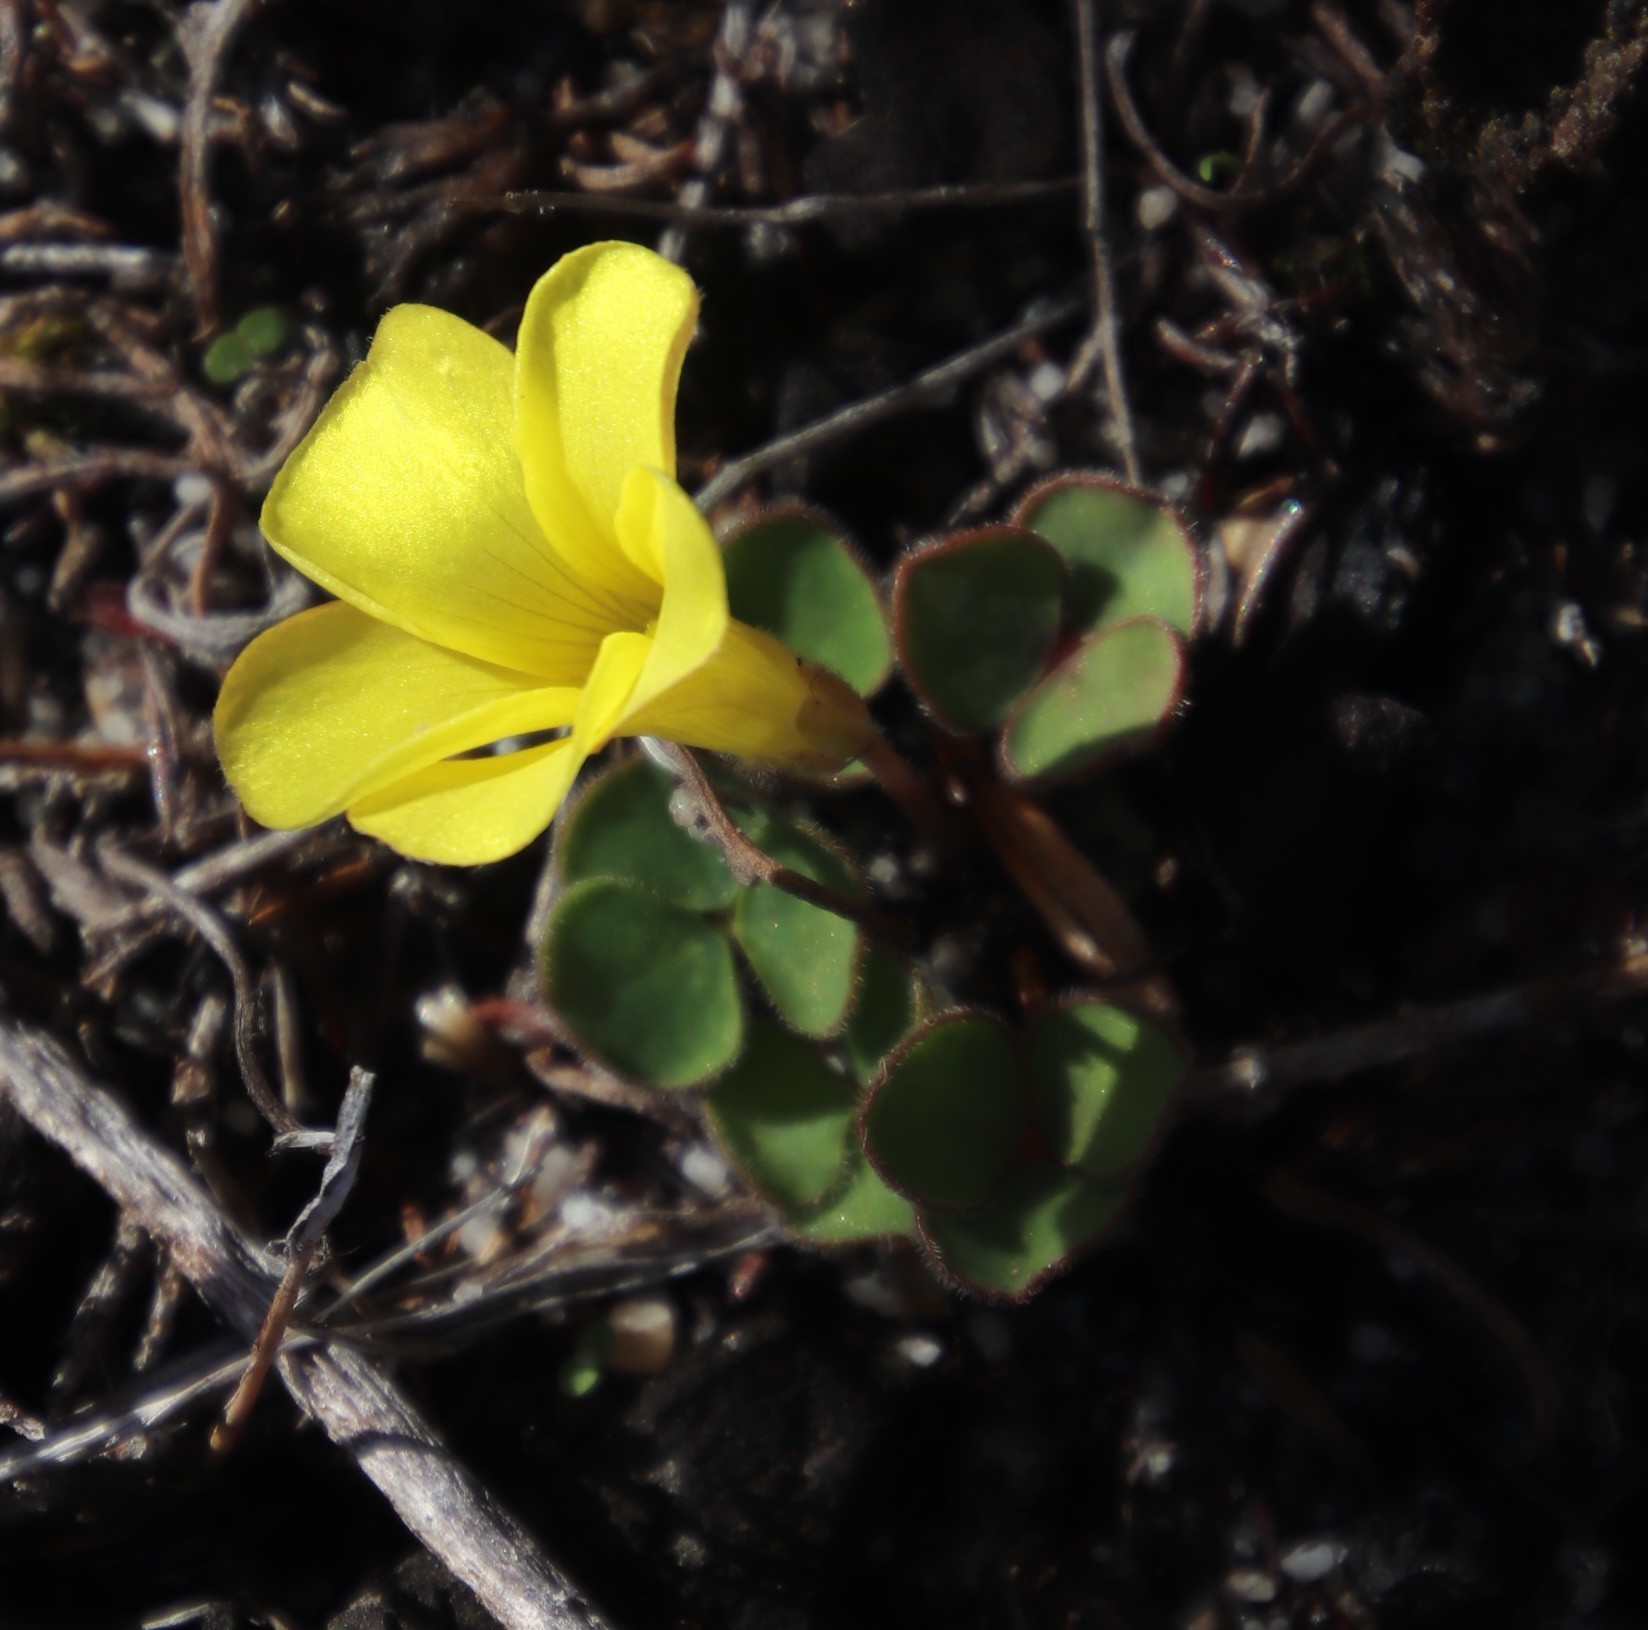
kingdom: Plantae
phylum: Tracheophyta
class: Magnoliopsida
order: Oxalidales
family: Oxalidaceae
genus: Oxalis
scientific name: Oxalis luteola
